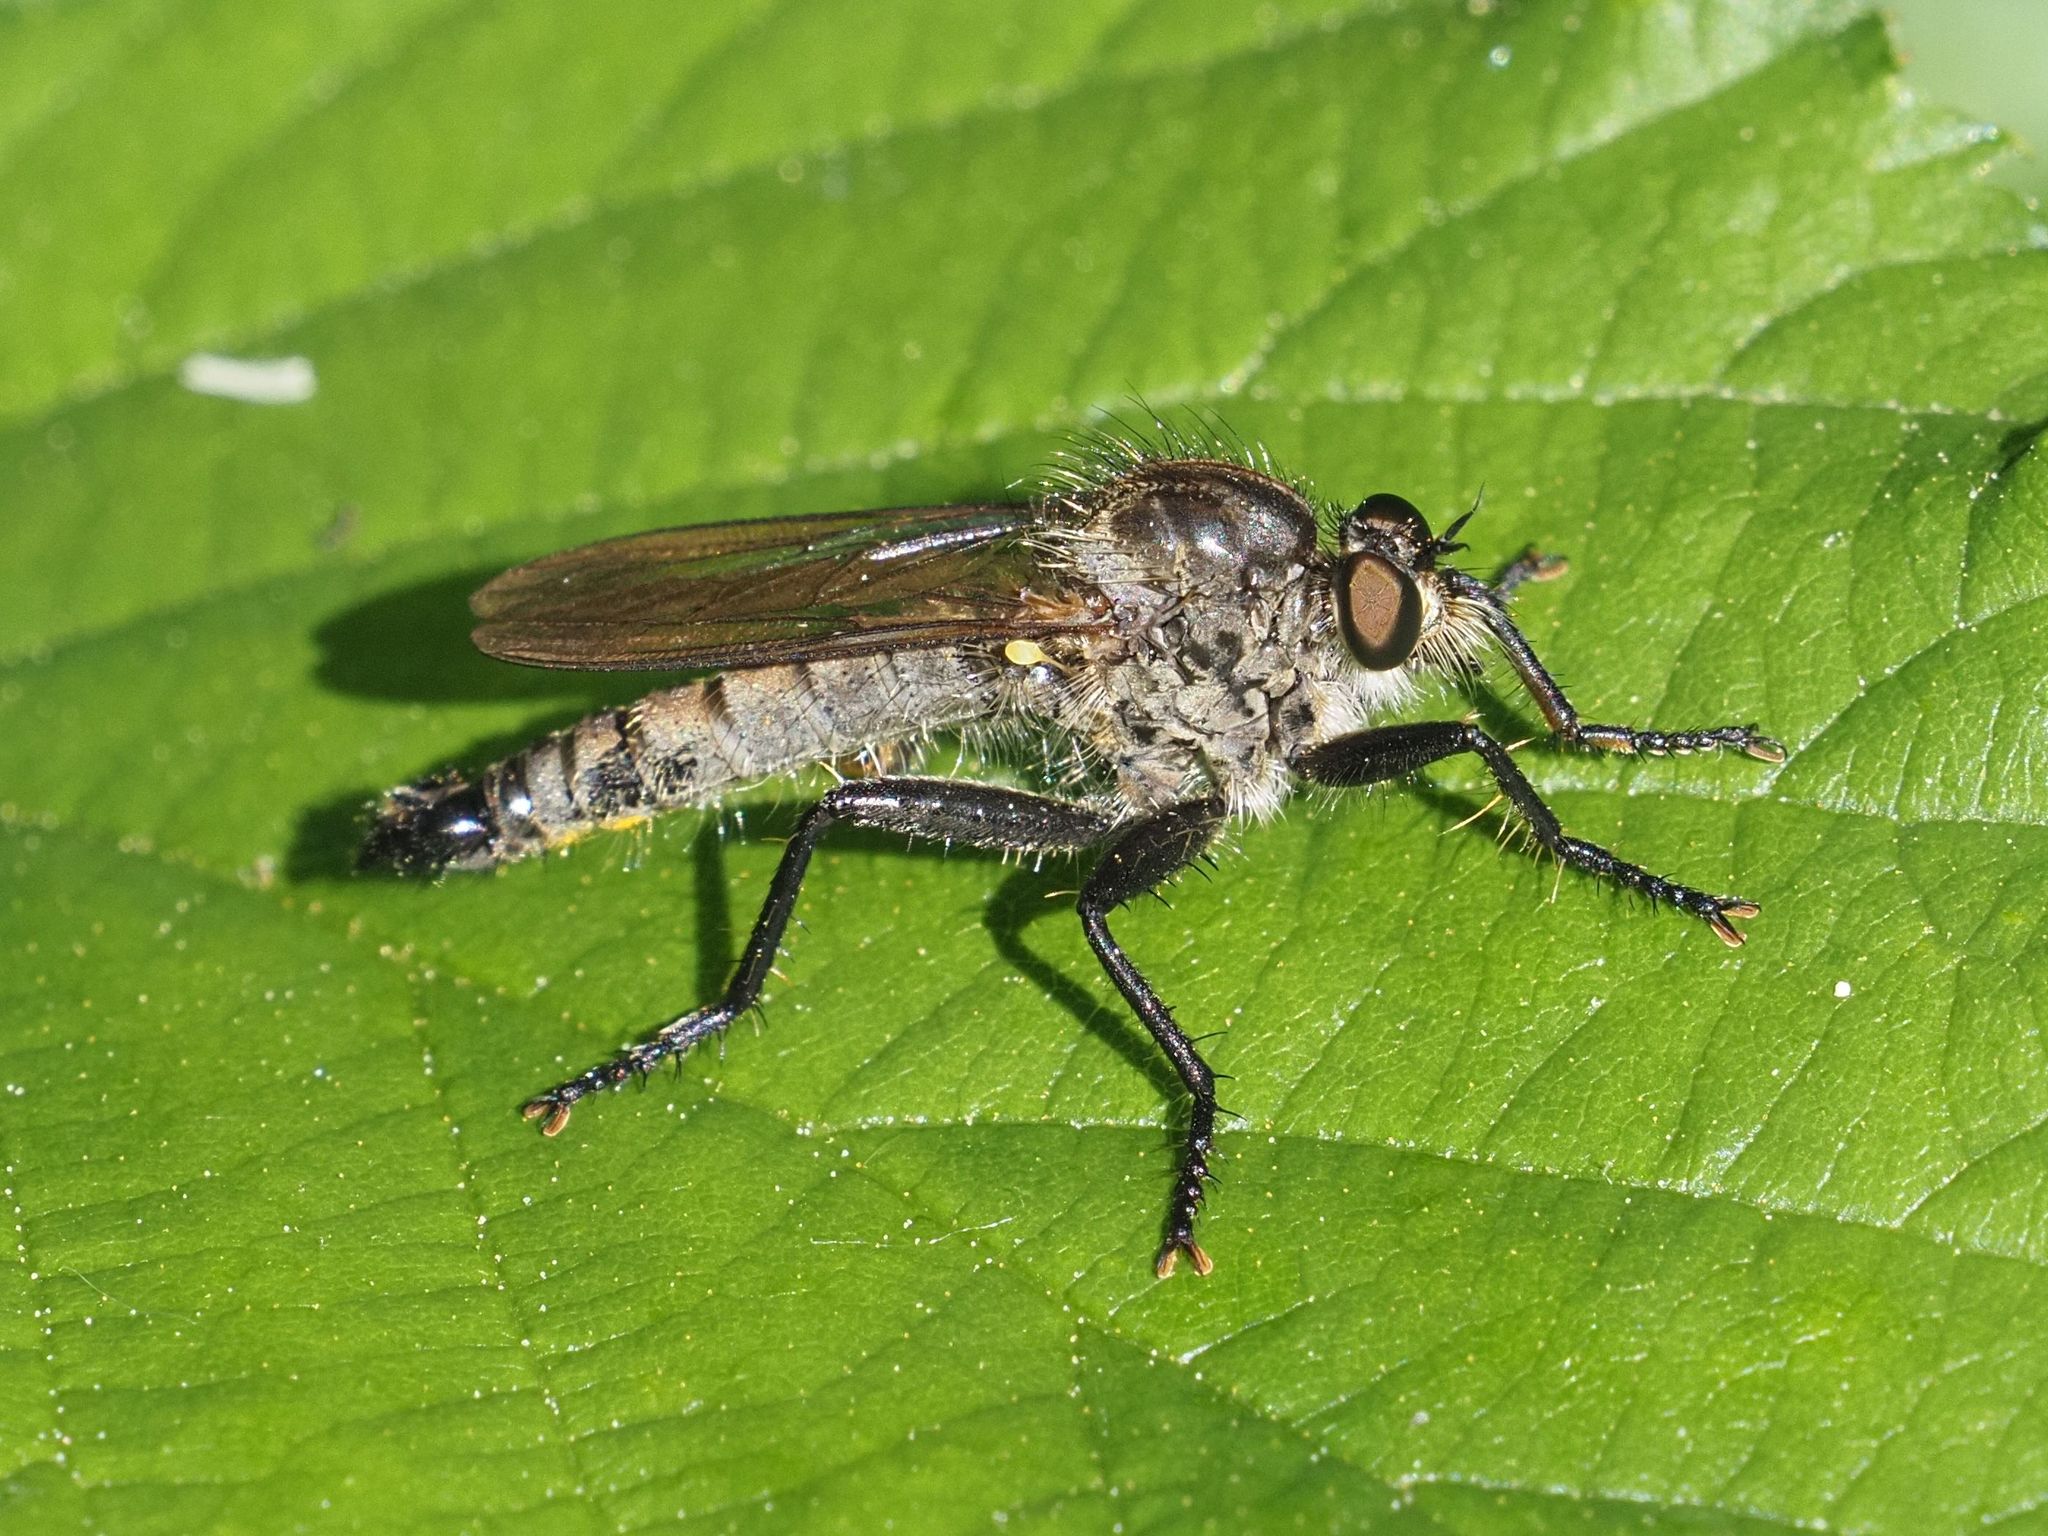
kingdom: Animalia
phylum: Arthropoda
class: Insecta
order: Diptera
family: Asilidae
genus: Didysmachus
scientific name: Didysmachus picipes
